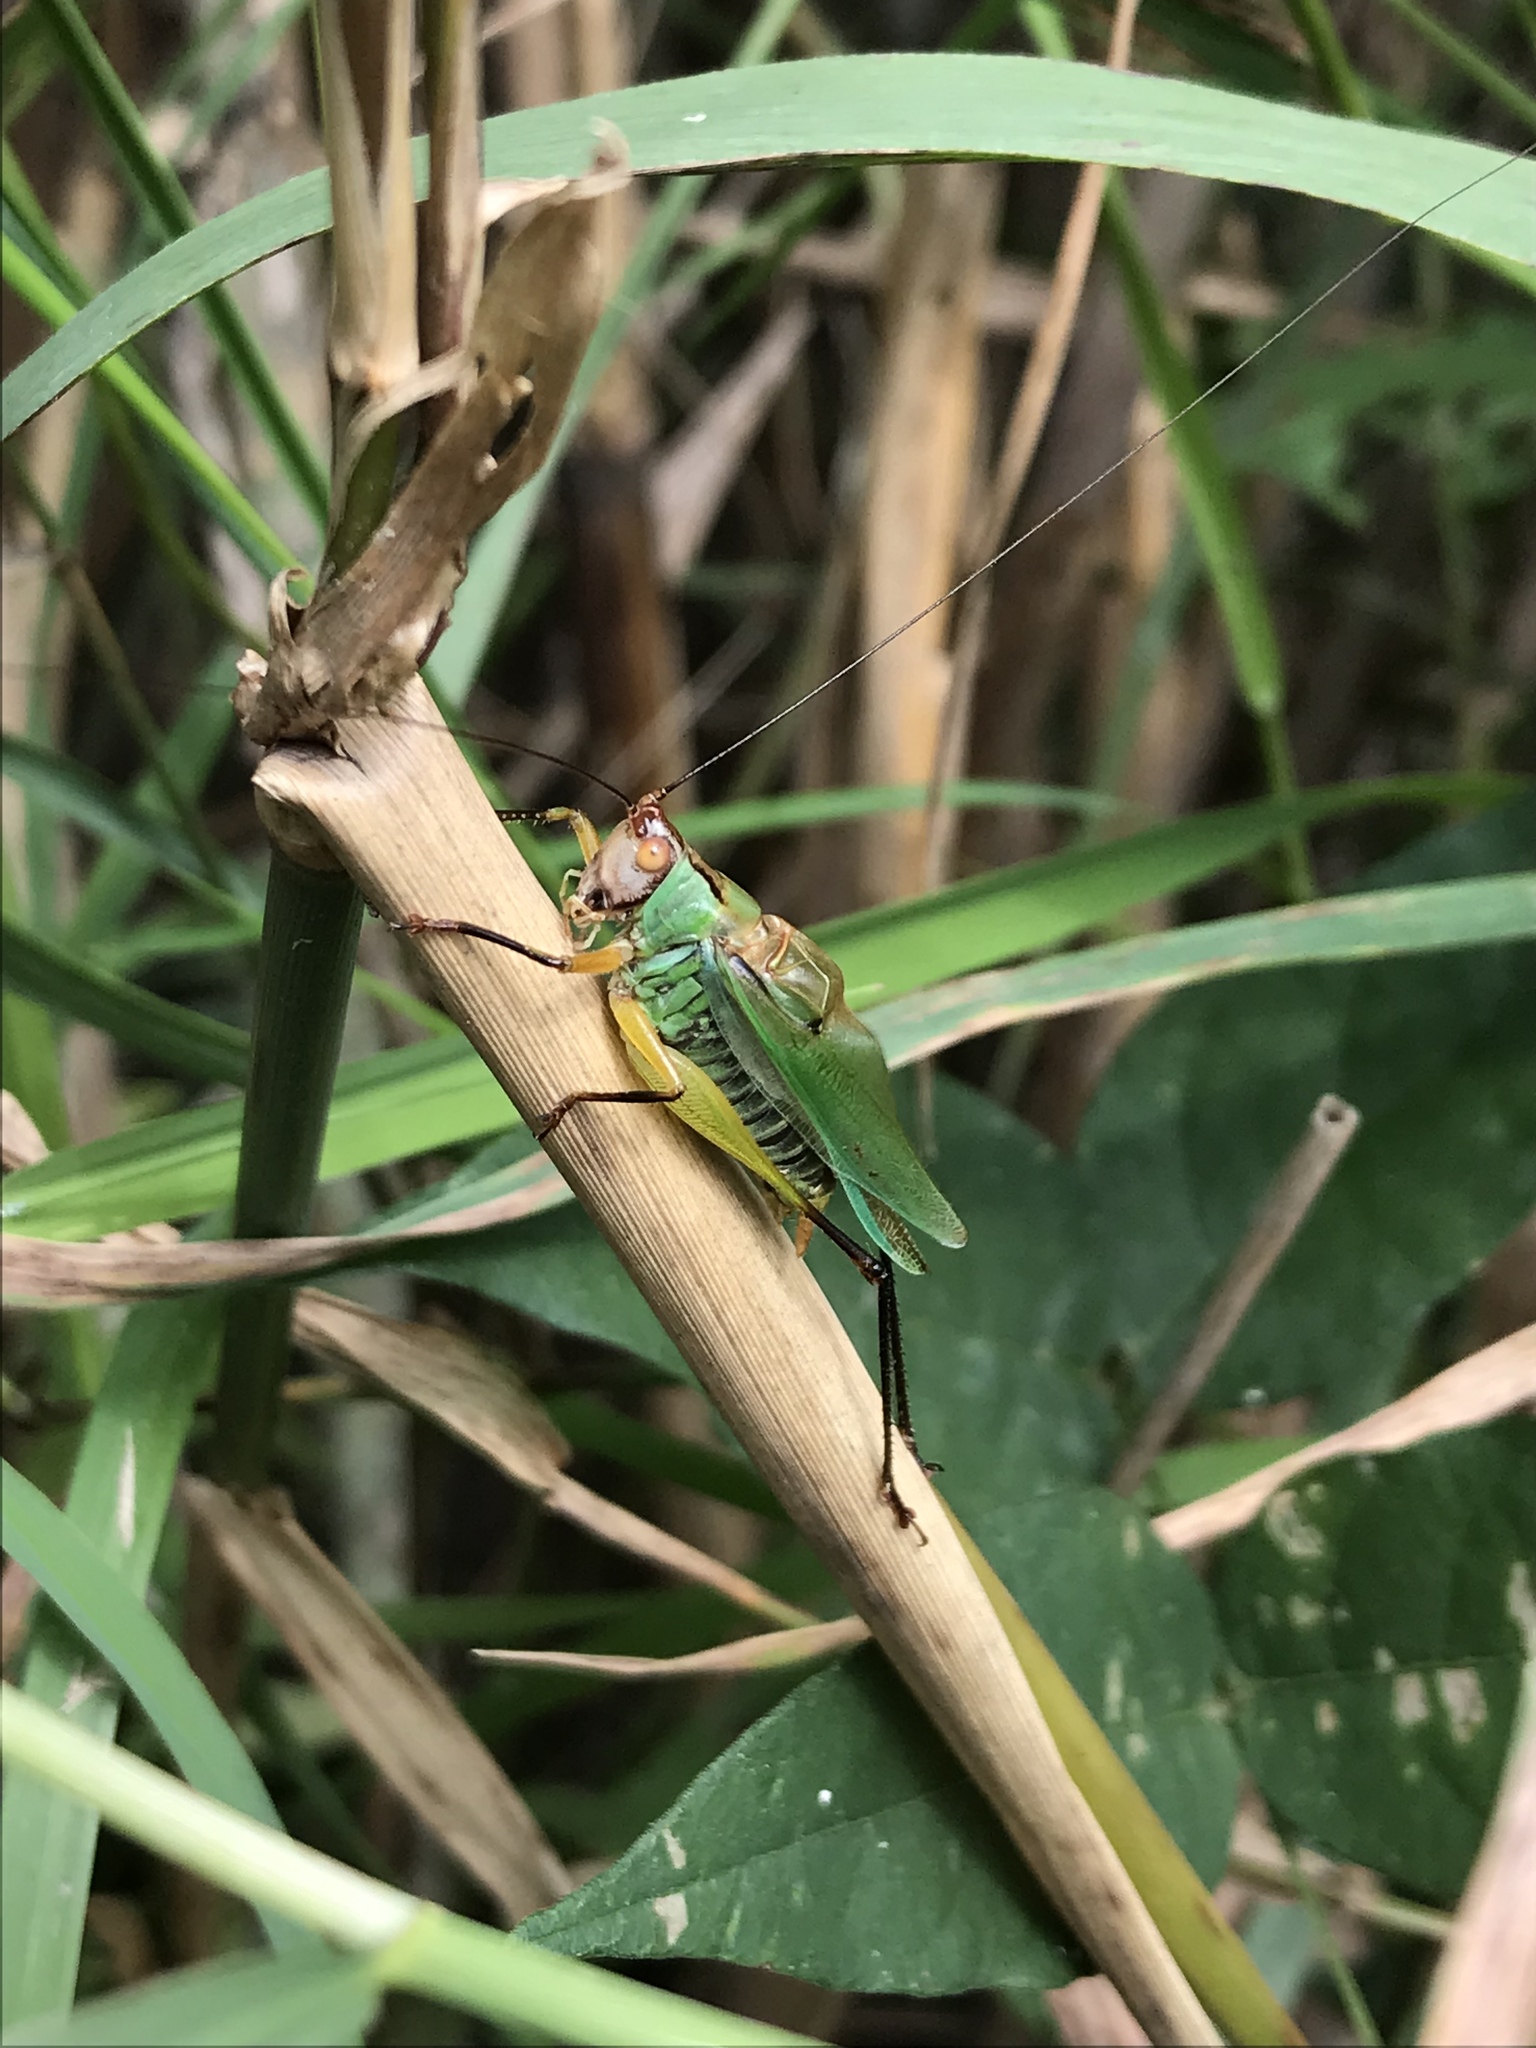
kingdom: Animalia
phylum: Arthropoda
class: Insecta
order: Orthoptera
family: Tettigoniidae
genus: Orchelimum
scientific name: Orchelimum nigripes
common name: Black-legged meadow katydid
